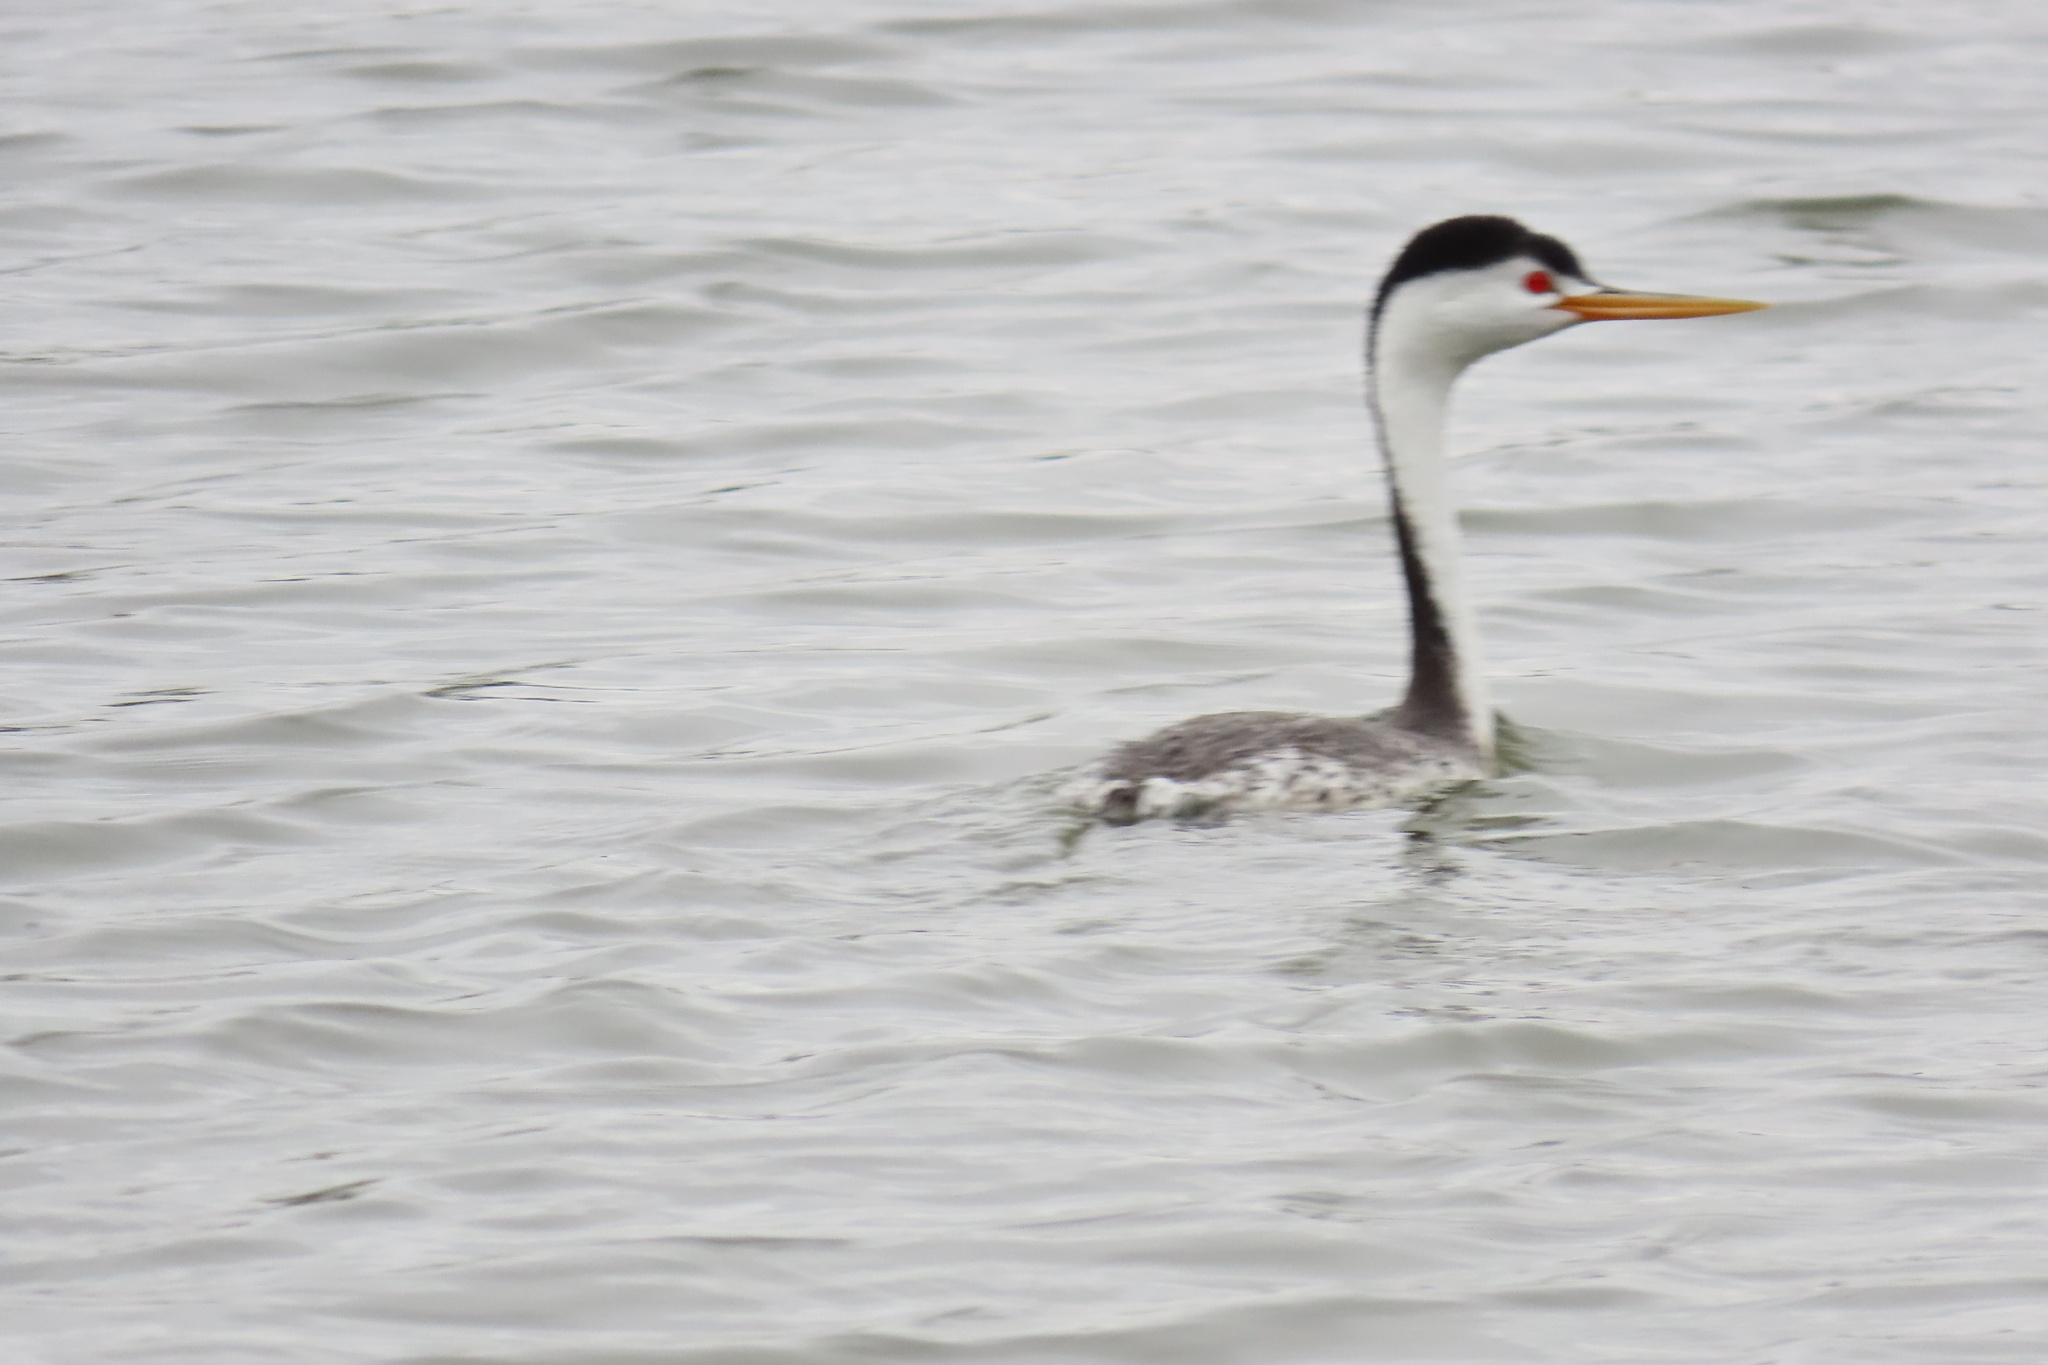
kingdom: Animalia
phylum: Chordata
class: Aves
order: Podicipediformes
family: Podicipedidae
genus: Aechmophorus
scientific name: Aechmophorus clarkii
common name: Clark's grebe
